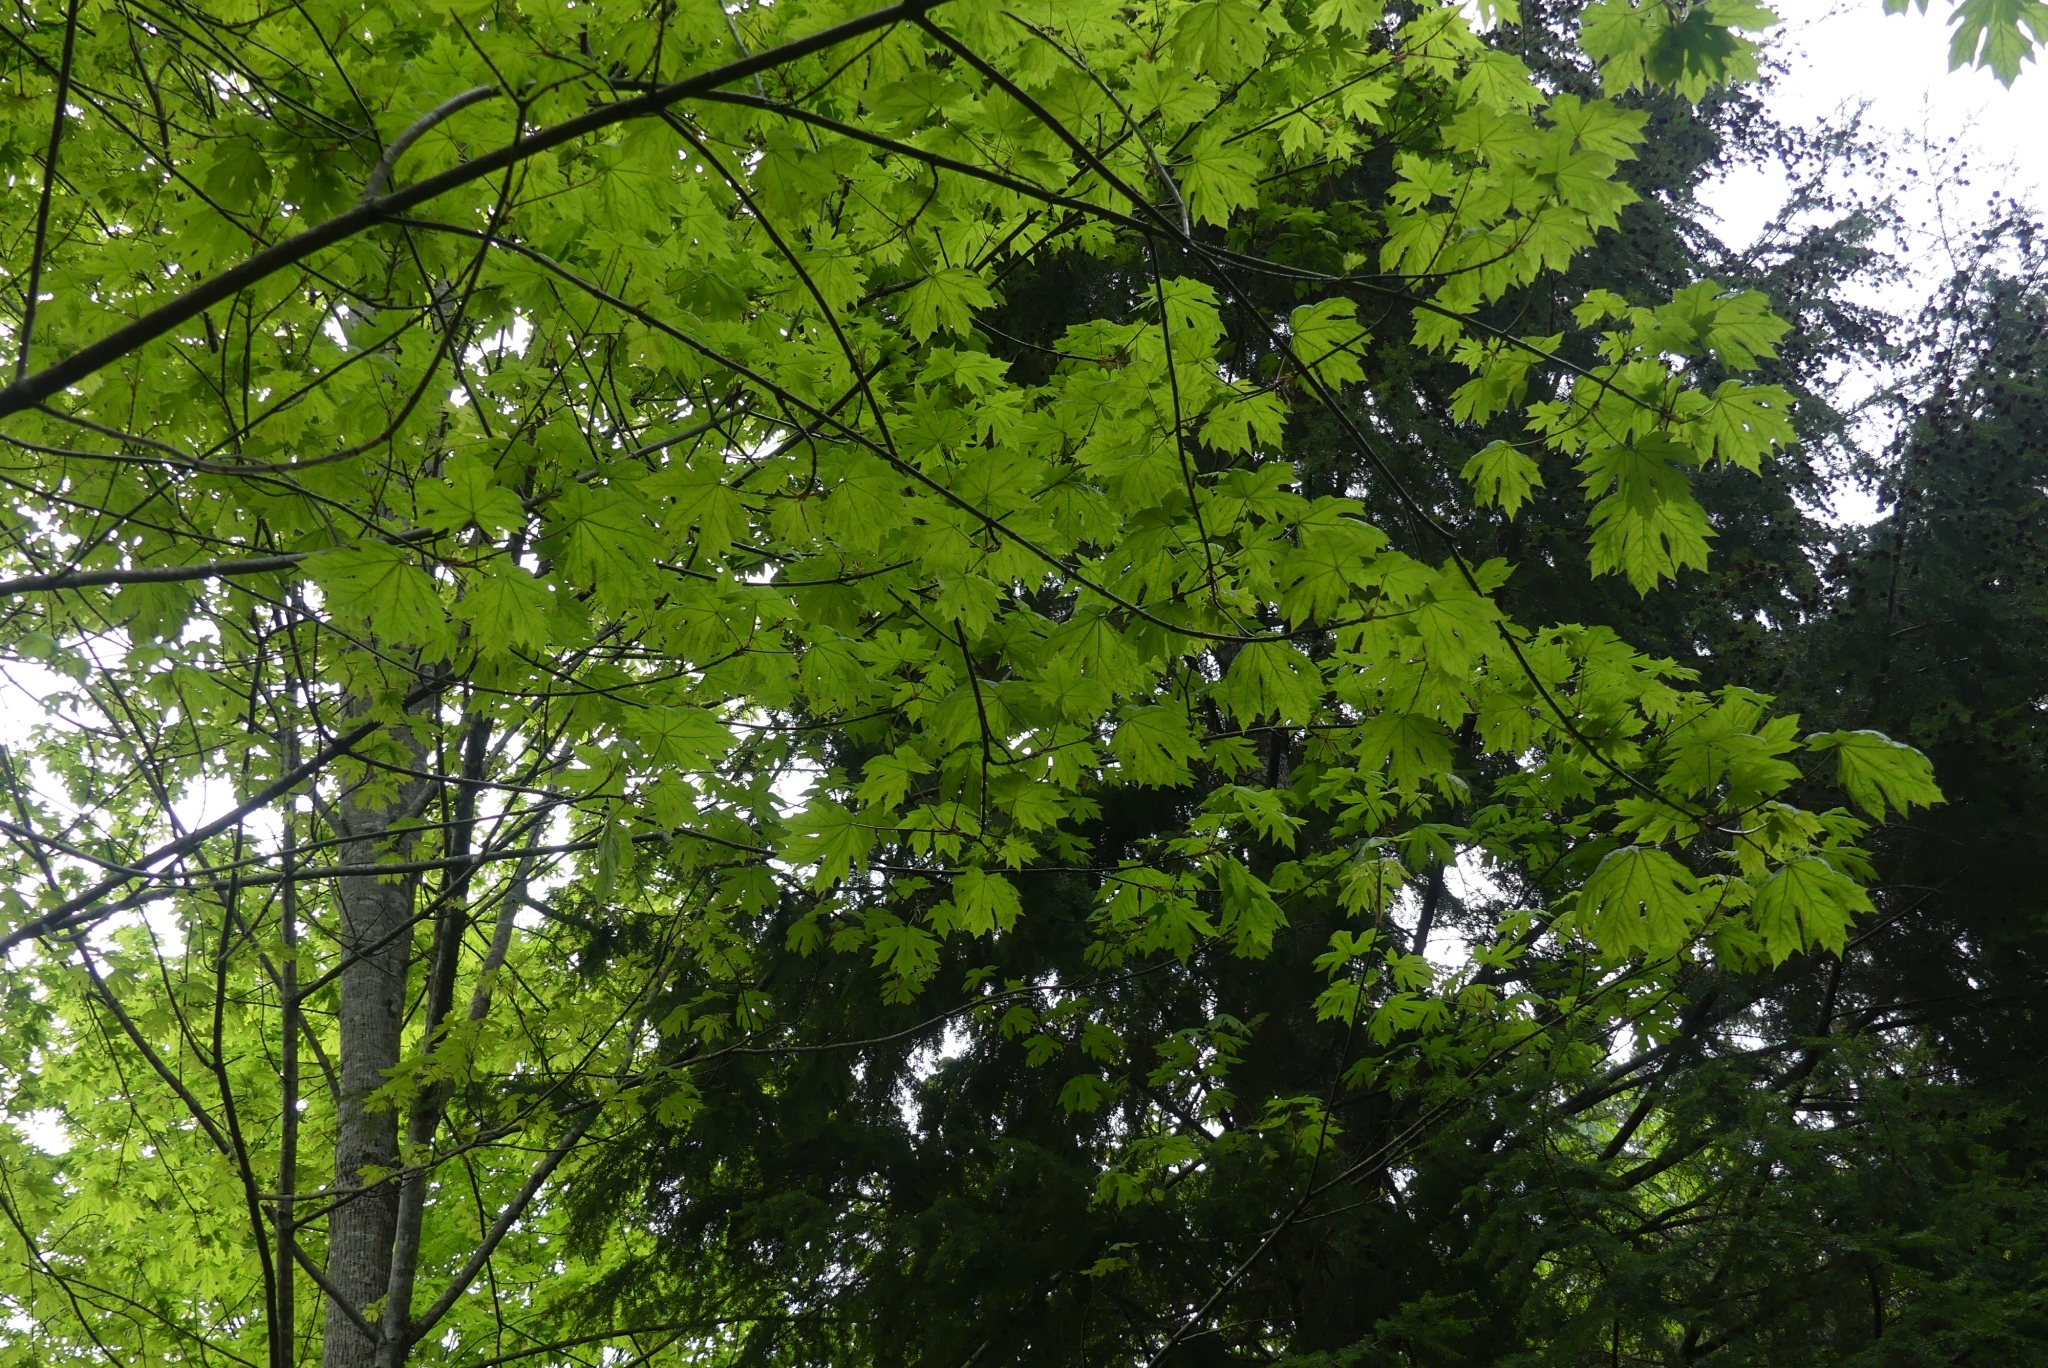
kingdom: Plantae
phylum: Tracheophyta
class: Magnoliopsida
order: Sapindales
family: Sapindaceae
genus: Acer
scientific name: Acer macrophyllum
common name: Oregon maple
